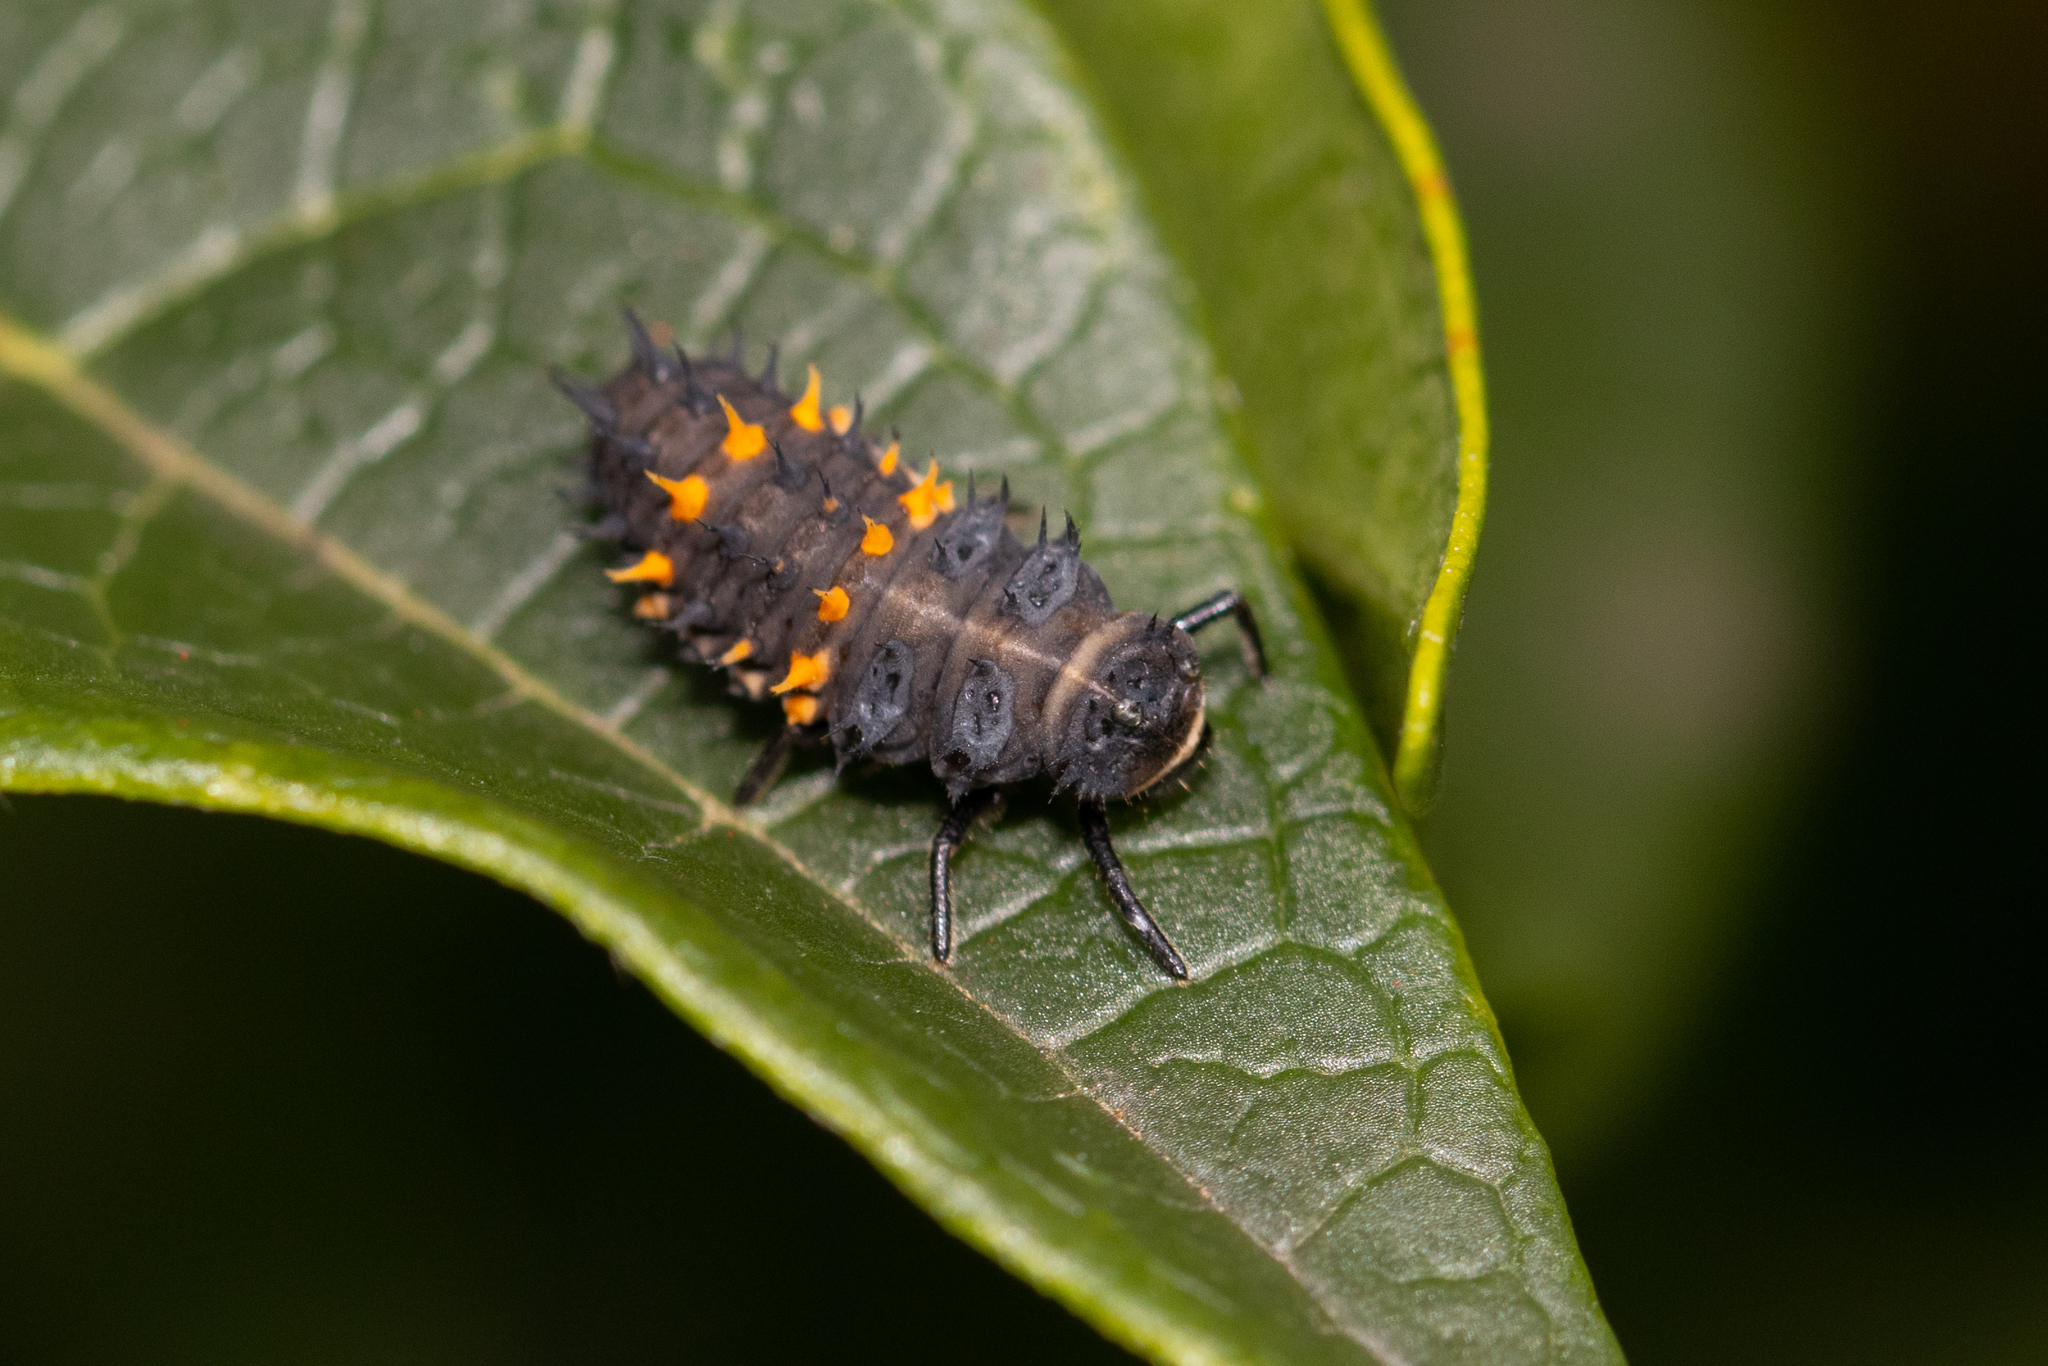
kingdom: Animalia
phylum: Arthropoda
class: Insecta
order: Coleoptera
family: Coccinellidae
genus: Harmonia
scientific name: Harmonia conformis
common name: Common spotted ladybird beetle
